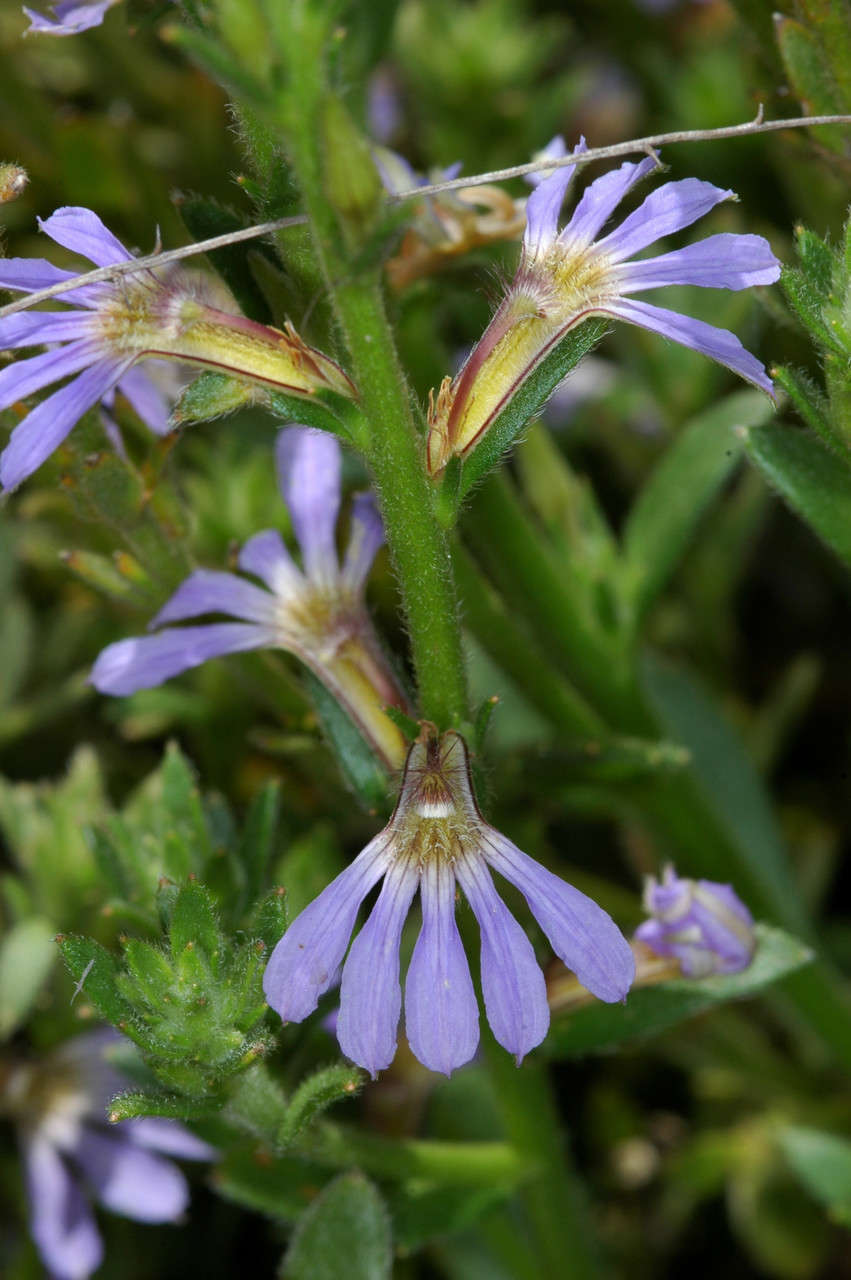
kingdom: Plantae
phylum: Tracheophyta
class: Magnoliopsida
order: Asterales
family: Goodeniaceae
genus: Scaevola
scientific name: Scaevola aemula
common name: Common fanflower
